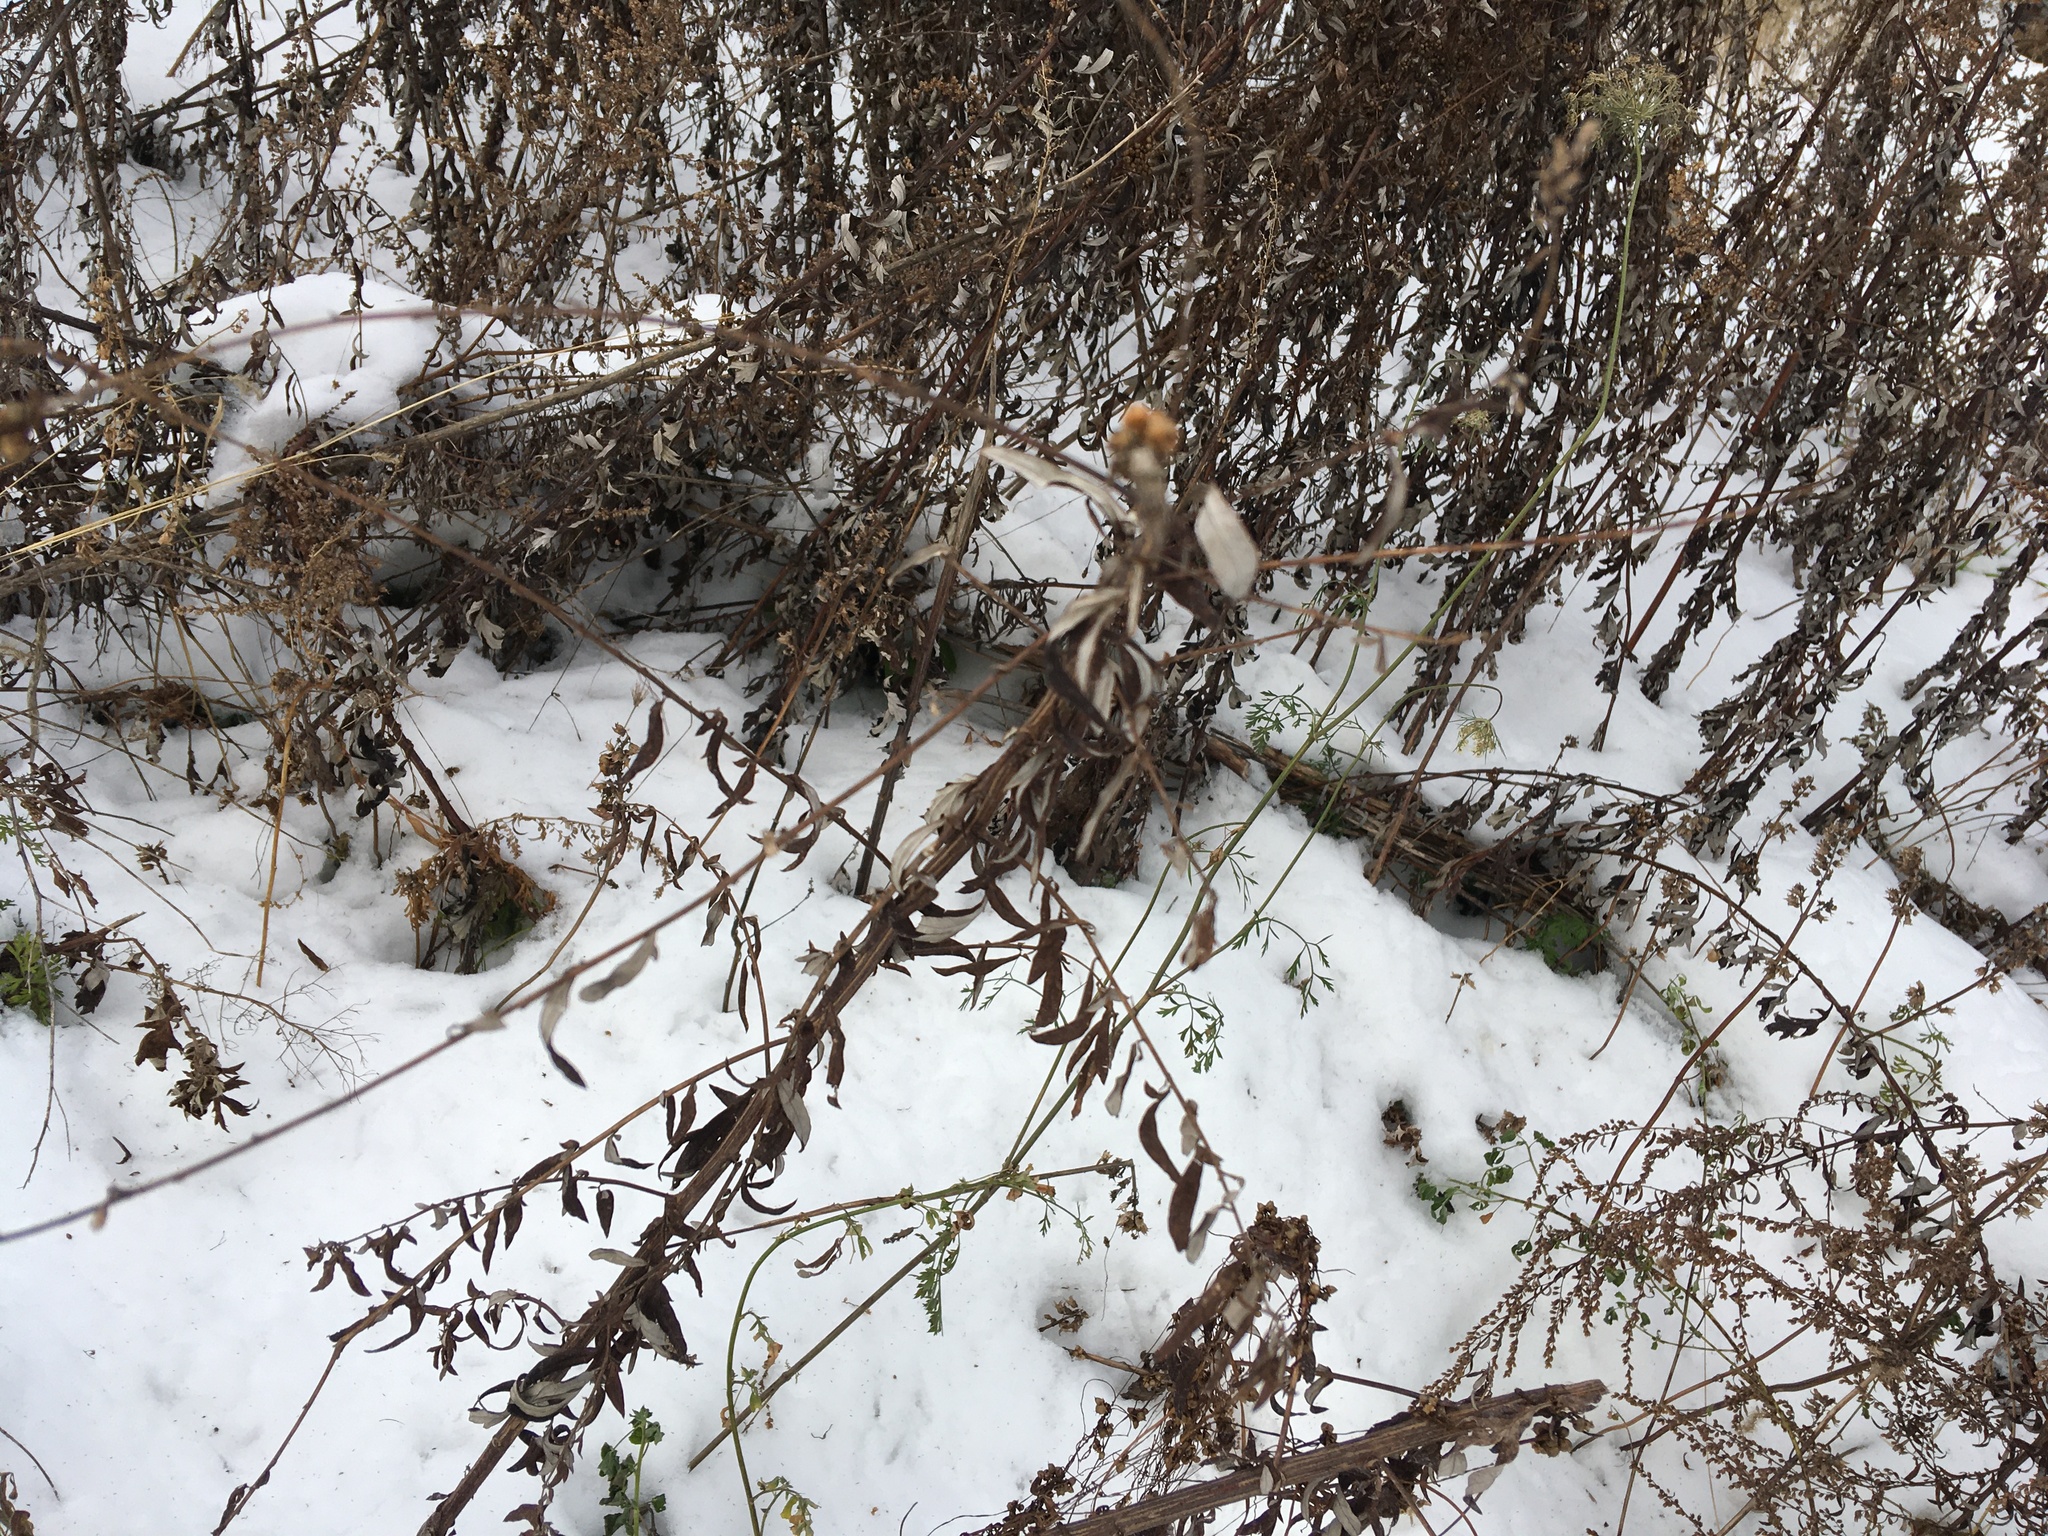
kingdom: Plantae
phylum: Tracheophyta
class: Magnoliopsida
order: Asterales
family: Asteraceae
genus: Artemisia
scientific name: Artemisia vulgaris
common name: Mugwort
